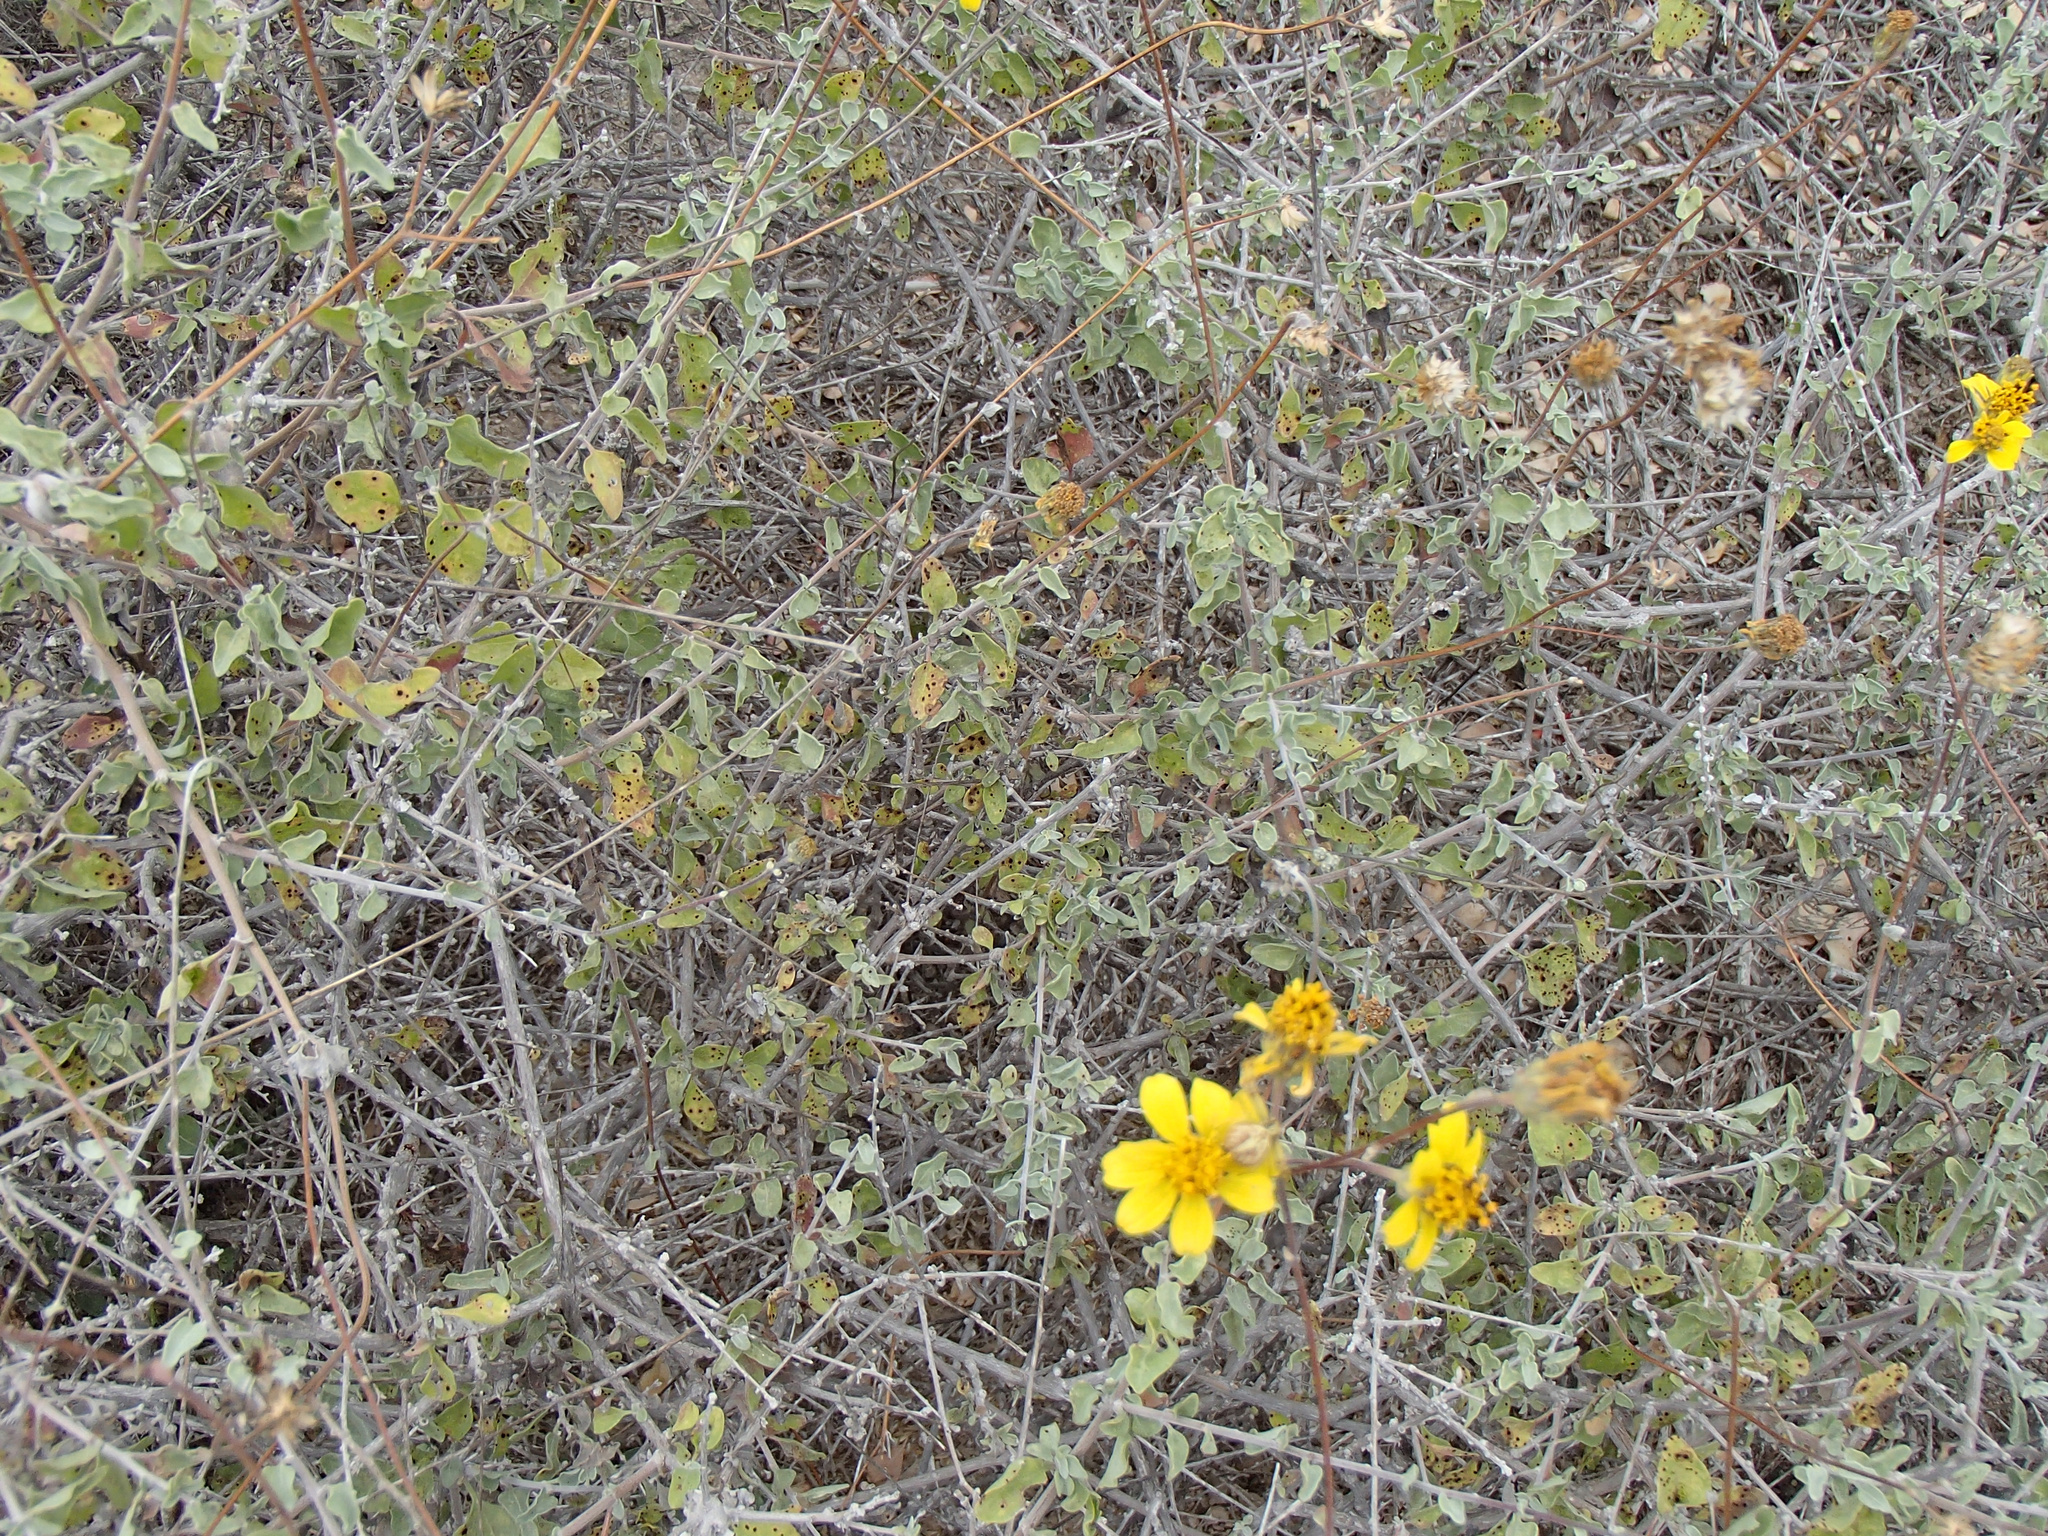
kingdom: Plantae
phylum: Tracheophyta
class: Magnoliopsida
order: Asterales
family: Asteraceae
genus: Bahiopsis
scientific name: Bahiopsis chenopodina
